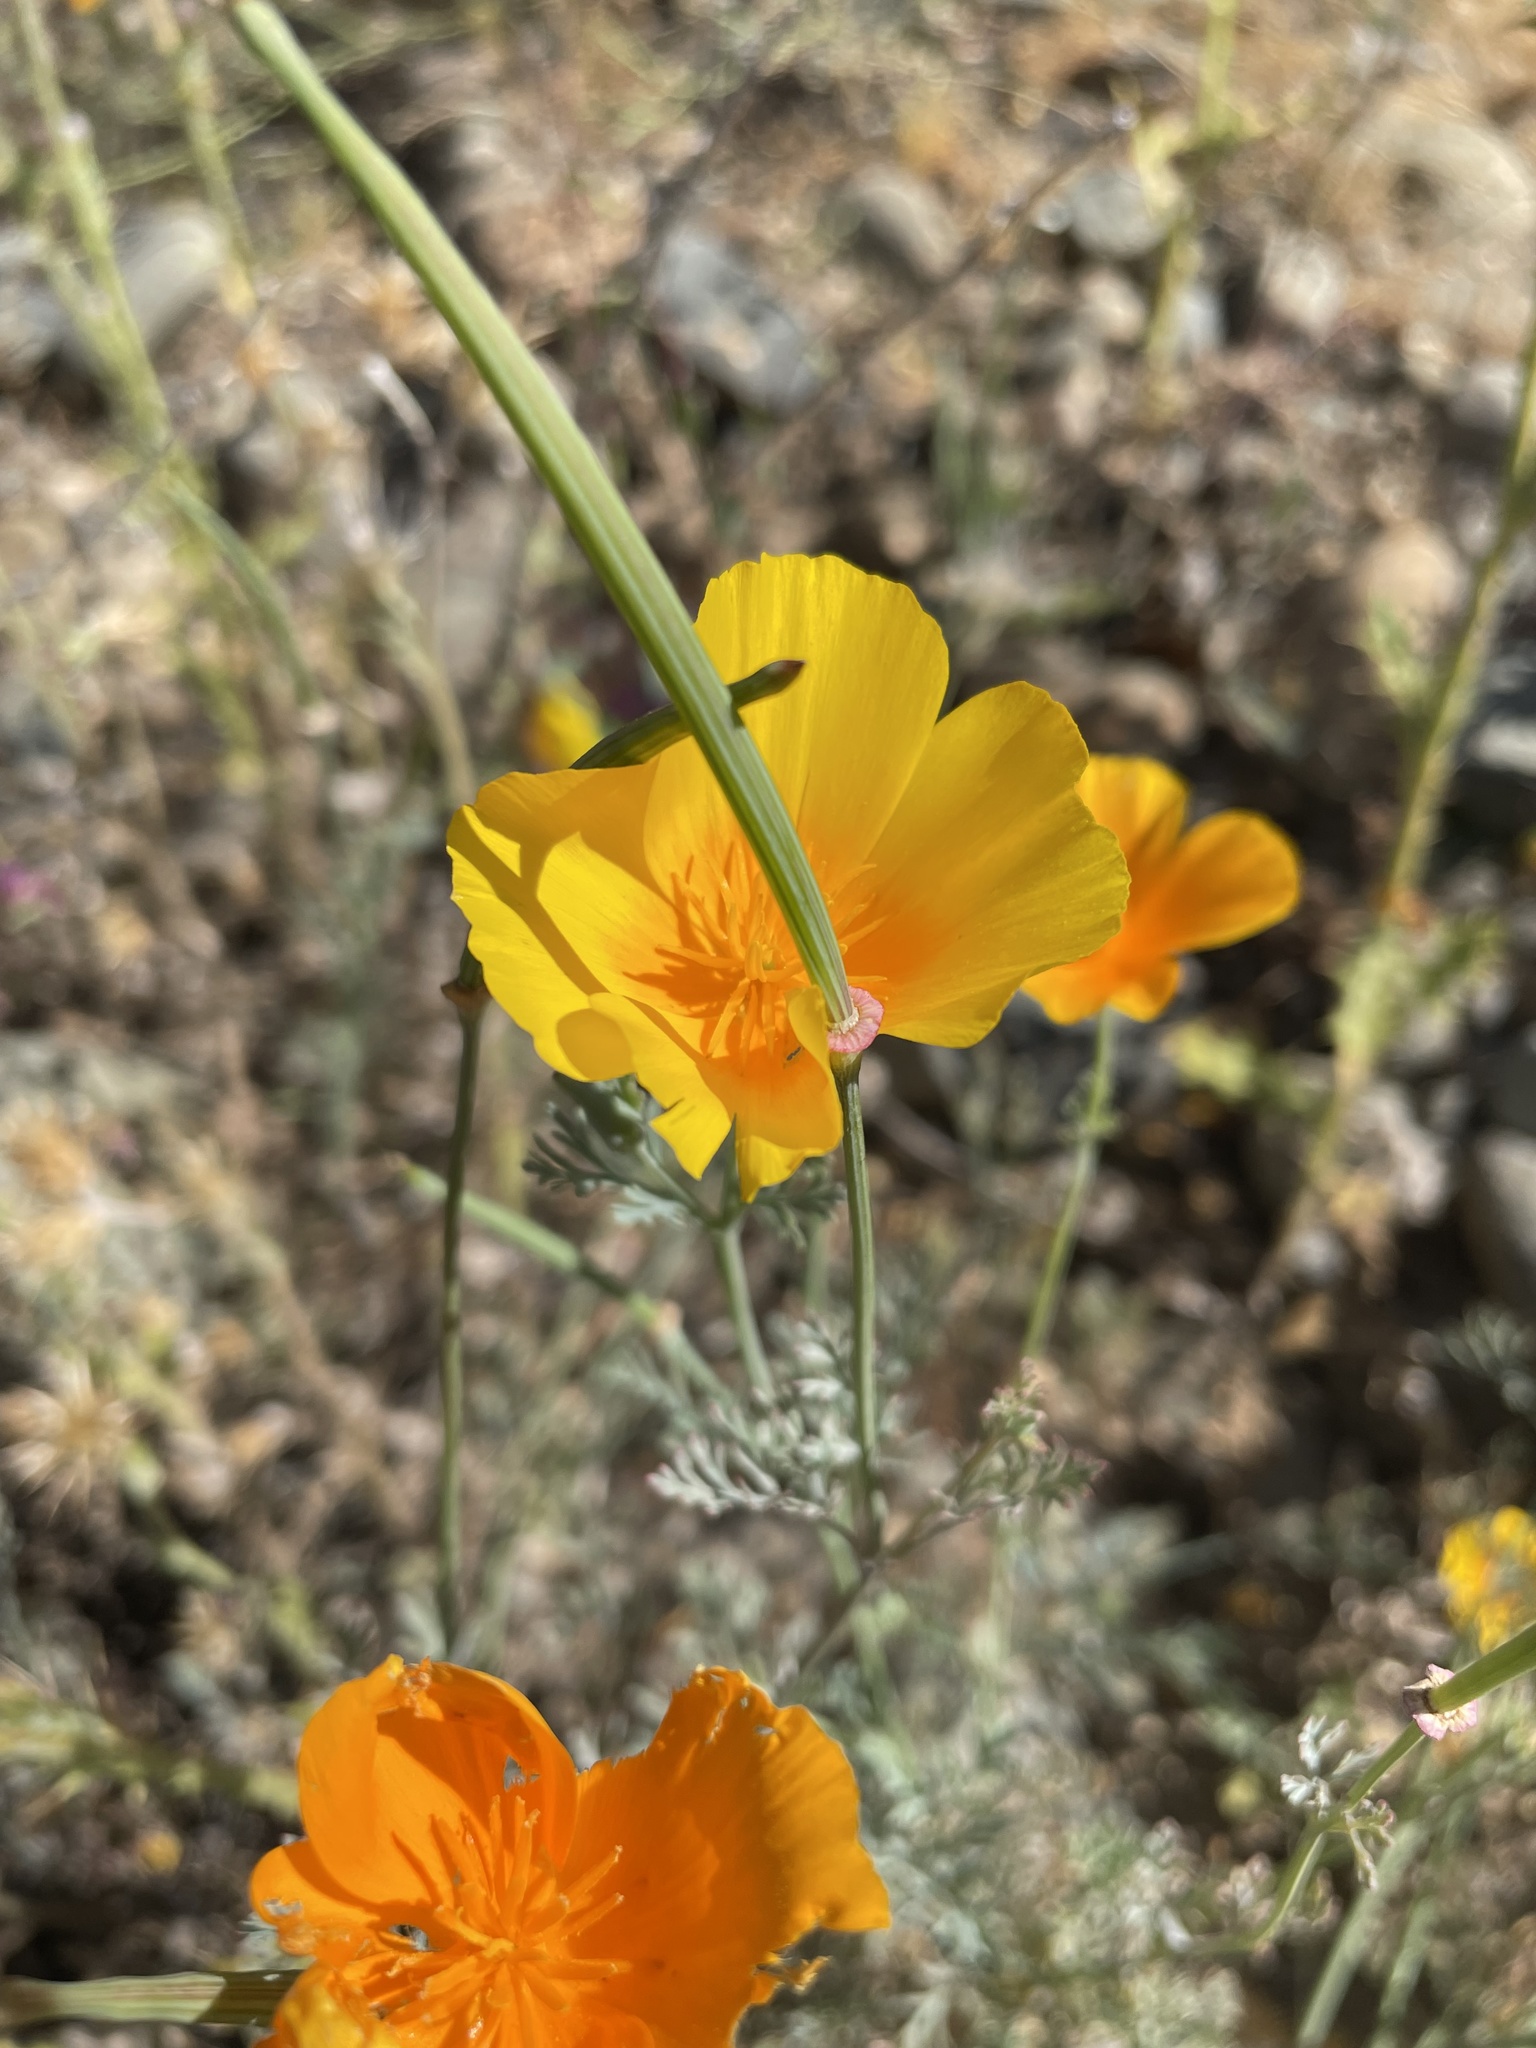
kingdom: Plantae
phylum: Tracheophyta
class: Magnoliopsida
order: Ranunculales
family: Papaveraceae
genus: Eschscholzia
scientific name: Eschscholzia californica
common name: California poppy
